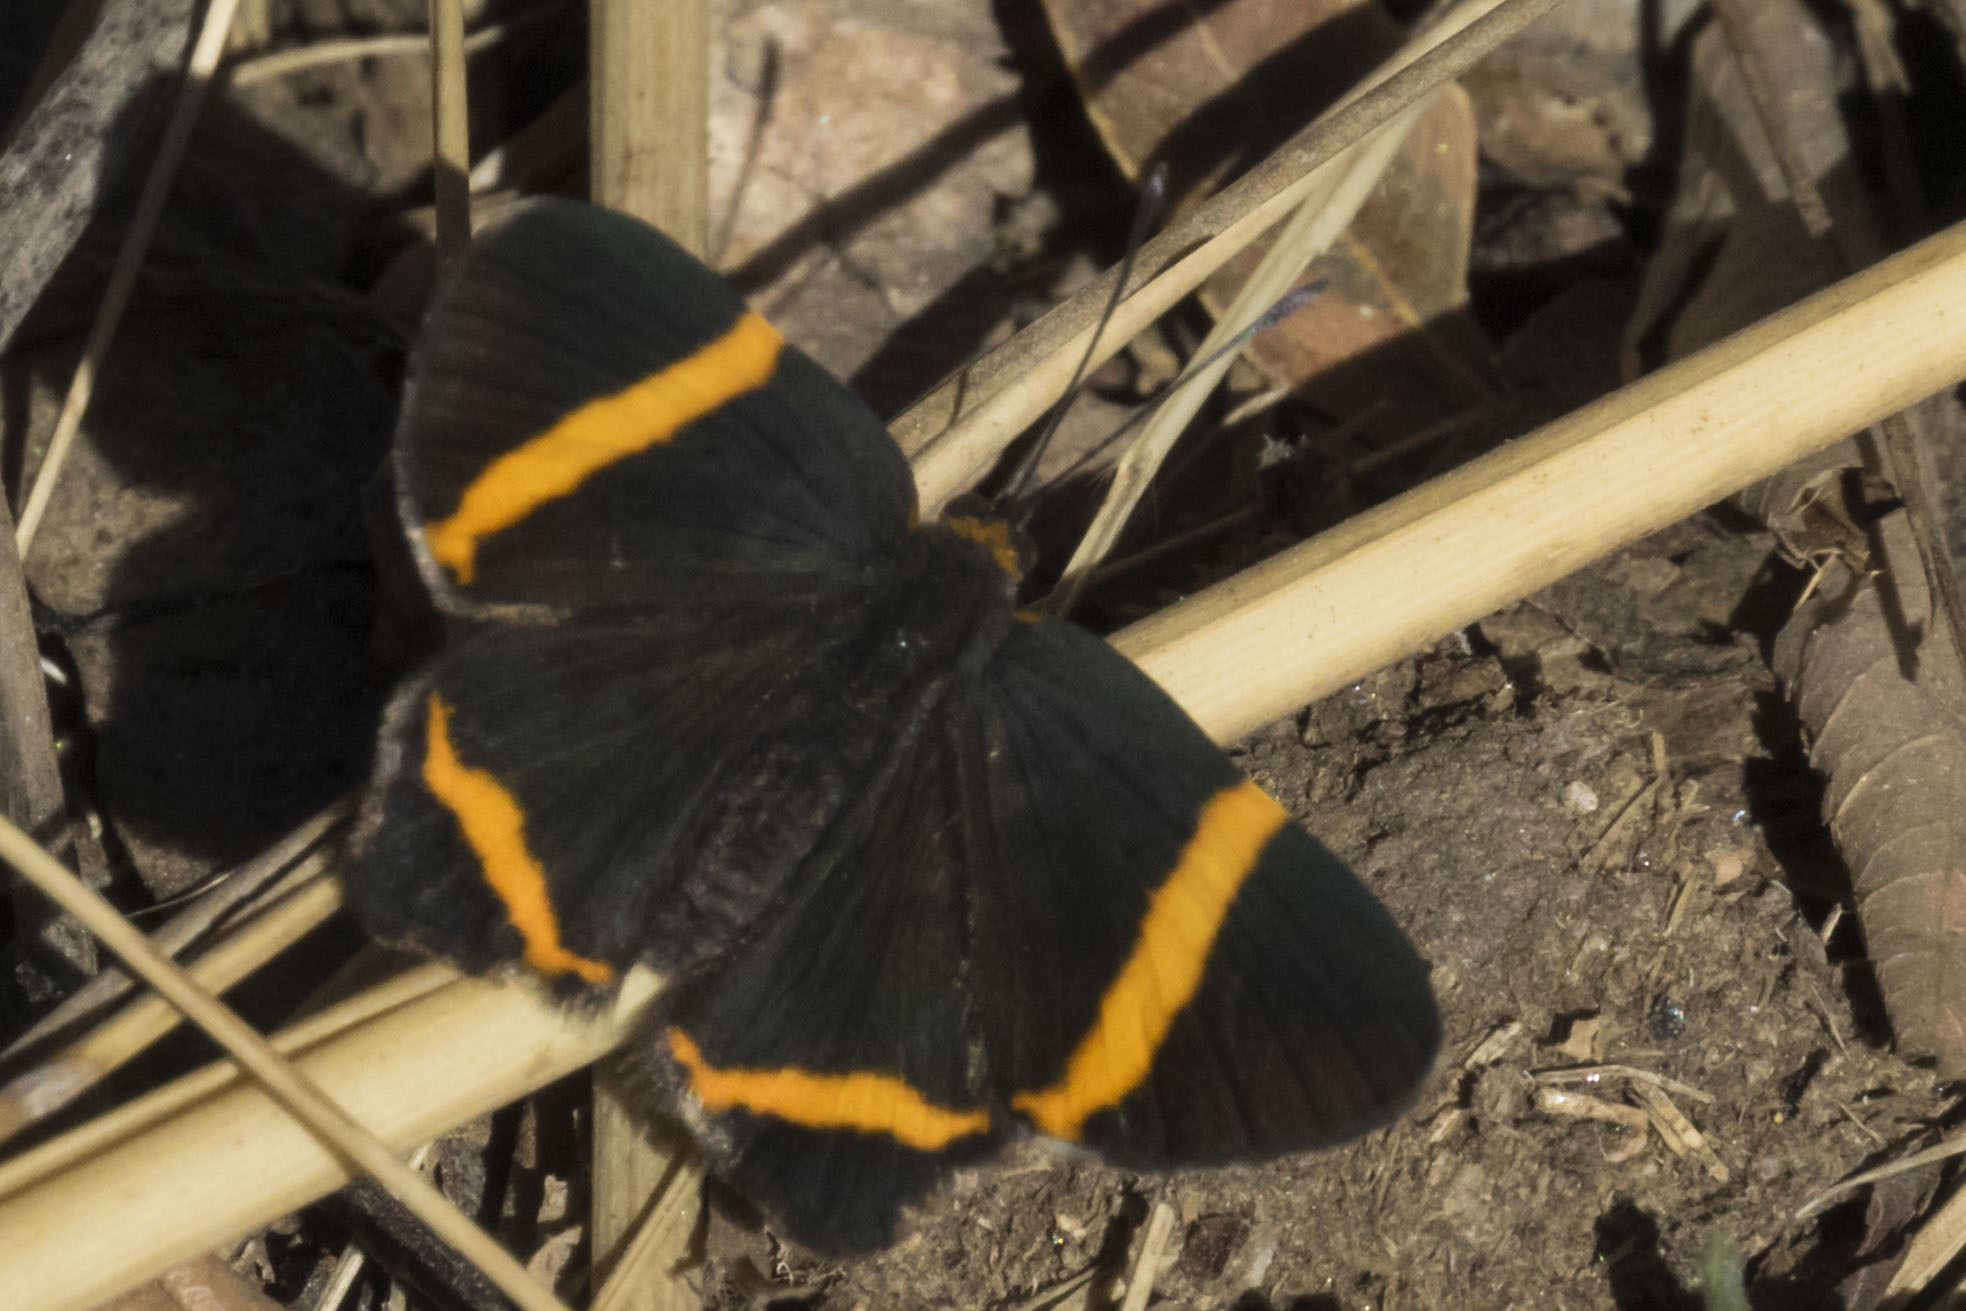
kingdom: Animalia
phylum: Arthropoda
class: Insecta
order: Lepidoptera
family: Riodinidae
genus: Riodina
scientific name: Riodina lysippoides
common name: Little dancer metalmark
